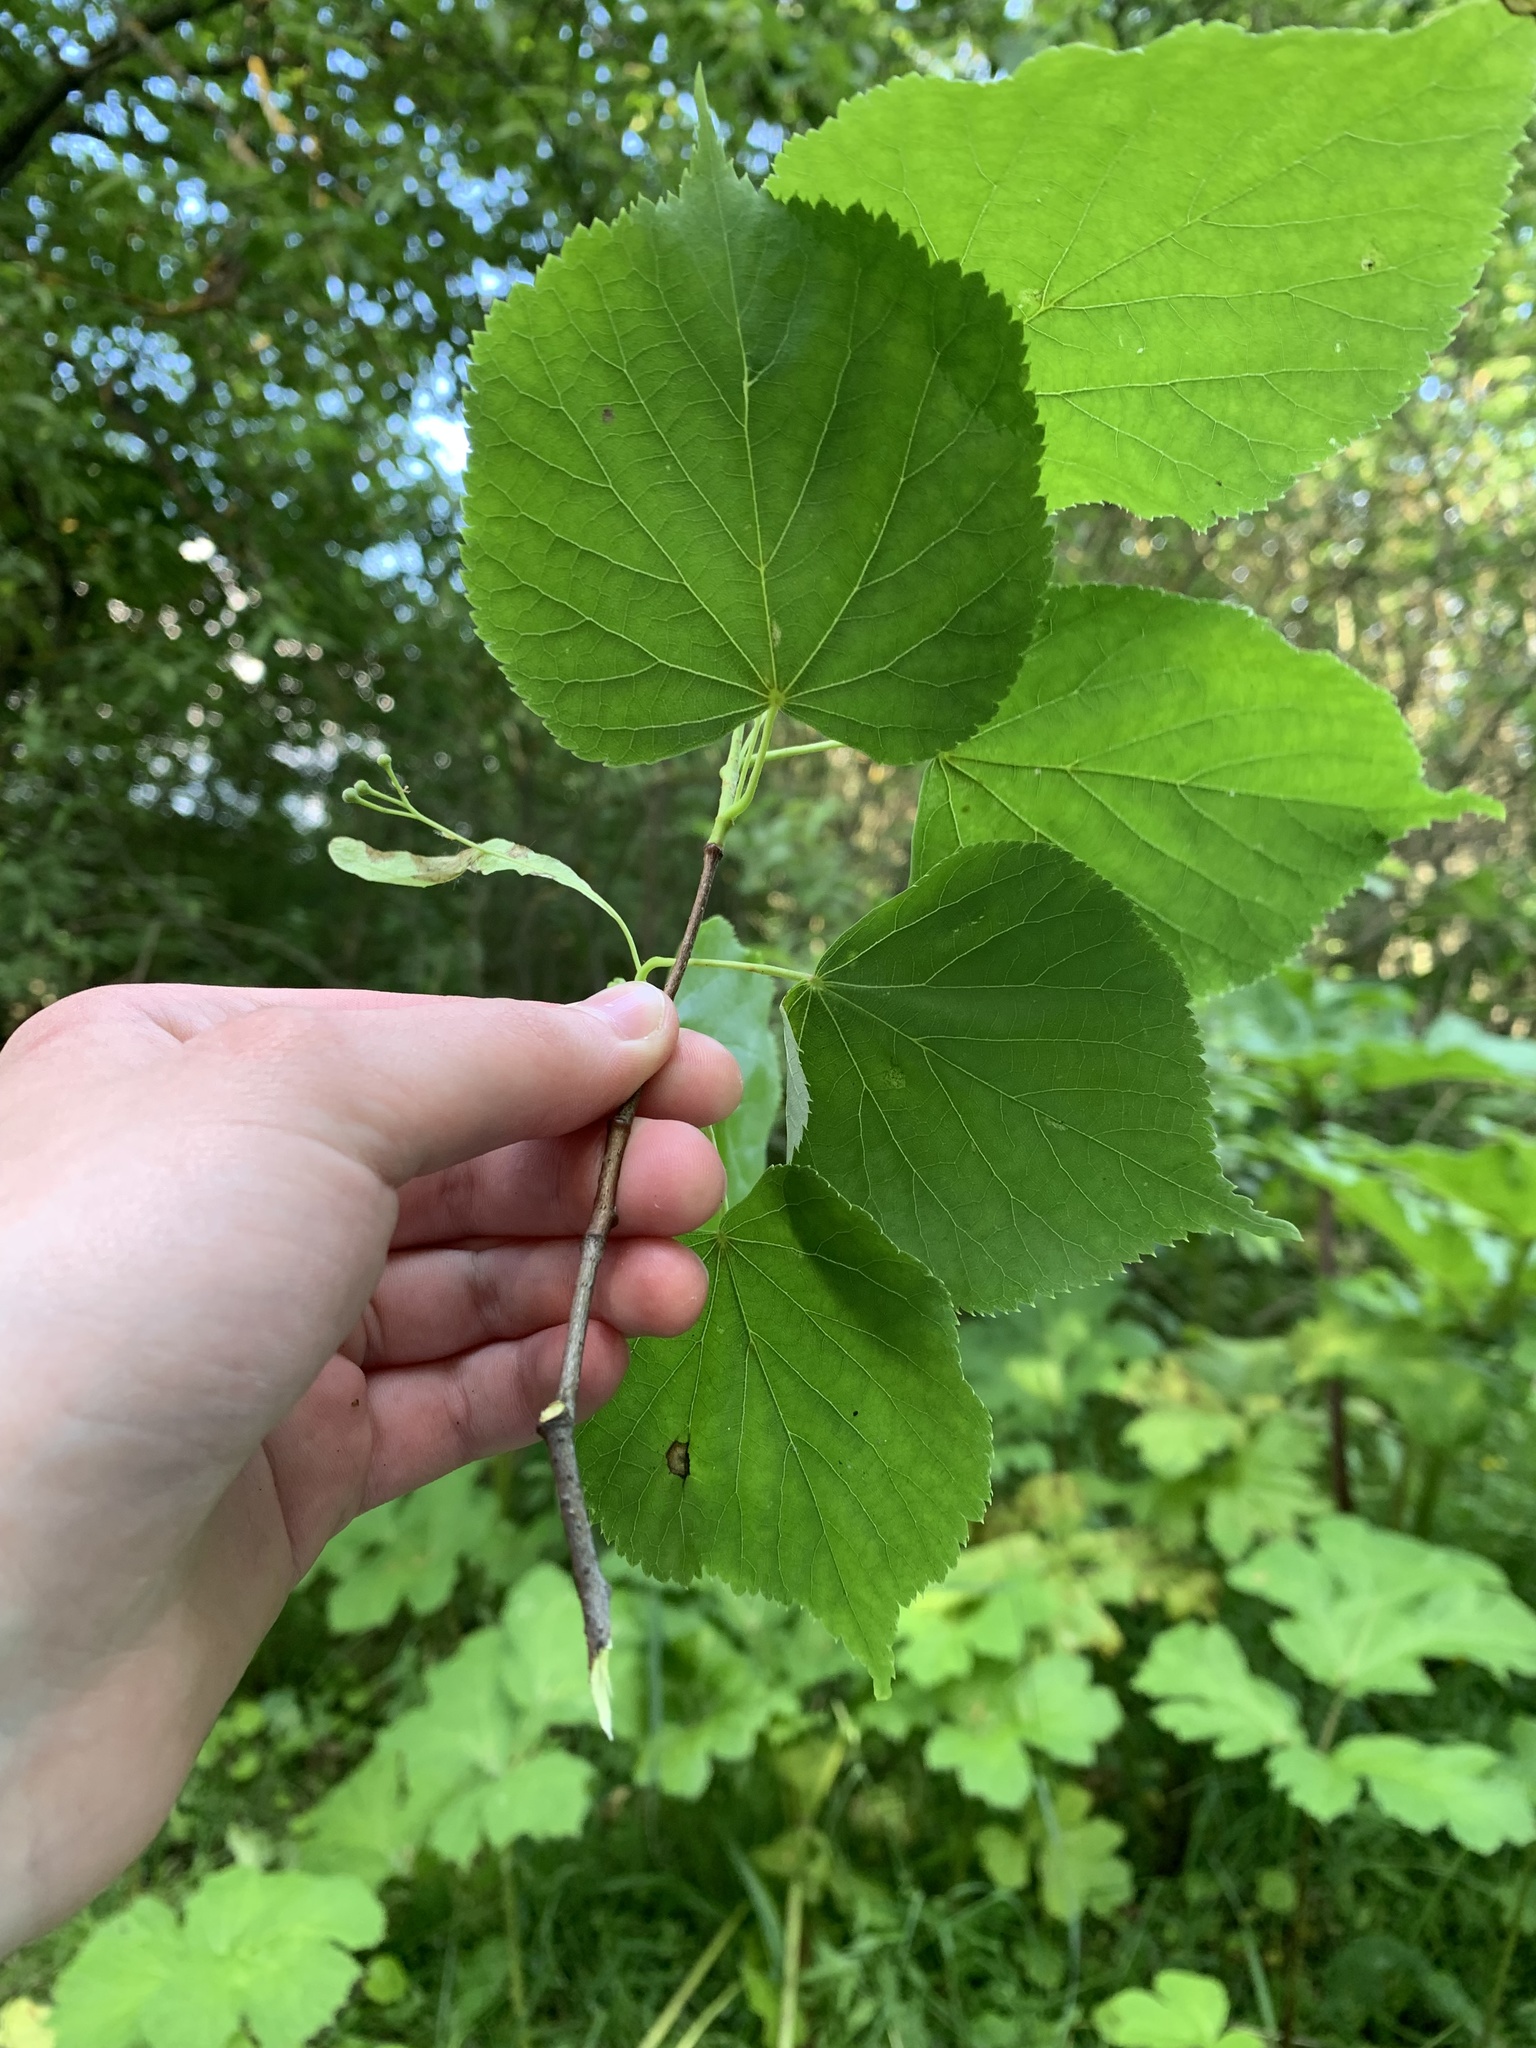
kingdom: Plantae
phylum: Tracheophyta
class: Magnoliopsida
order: Malvales
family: Malvaceae
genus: Tilia
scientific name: Tilia cordata
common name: Small-leaved lime
